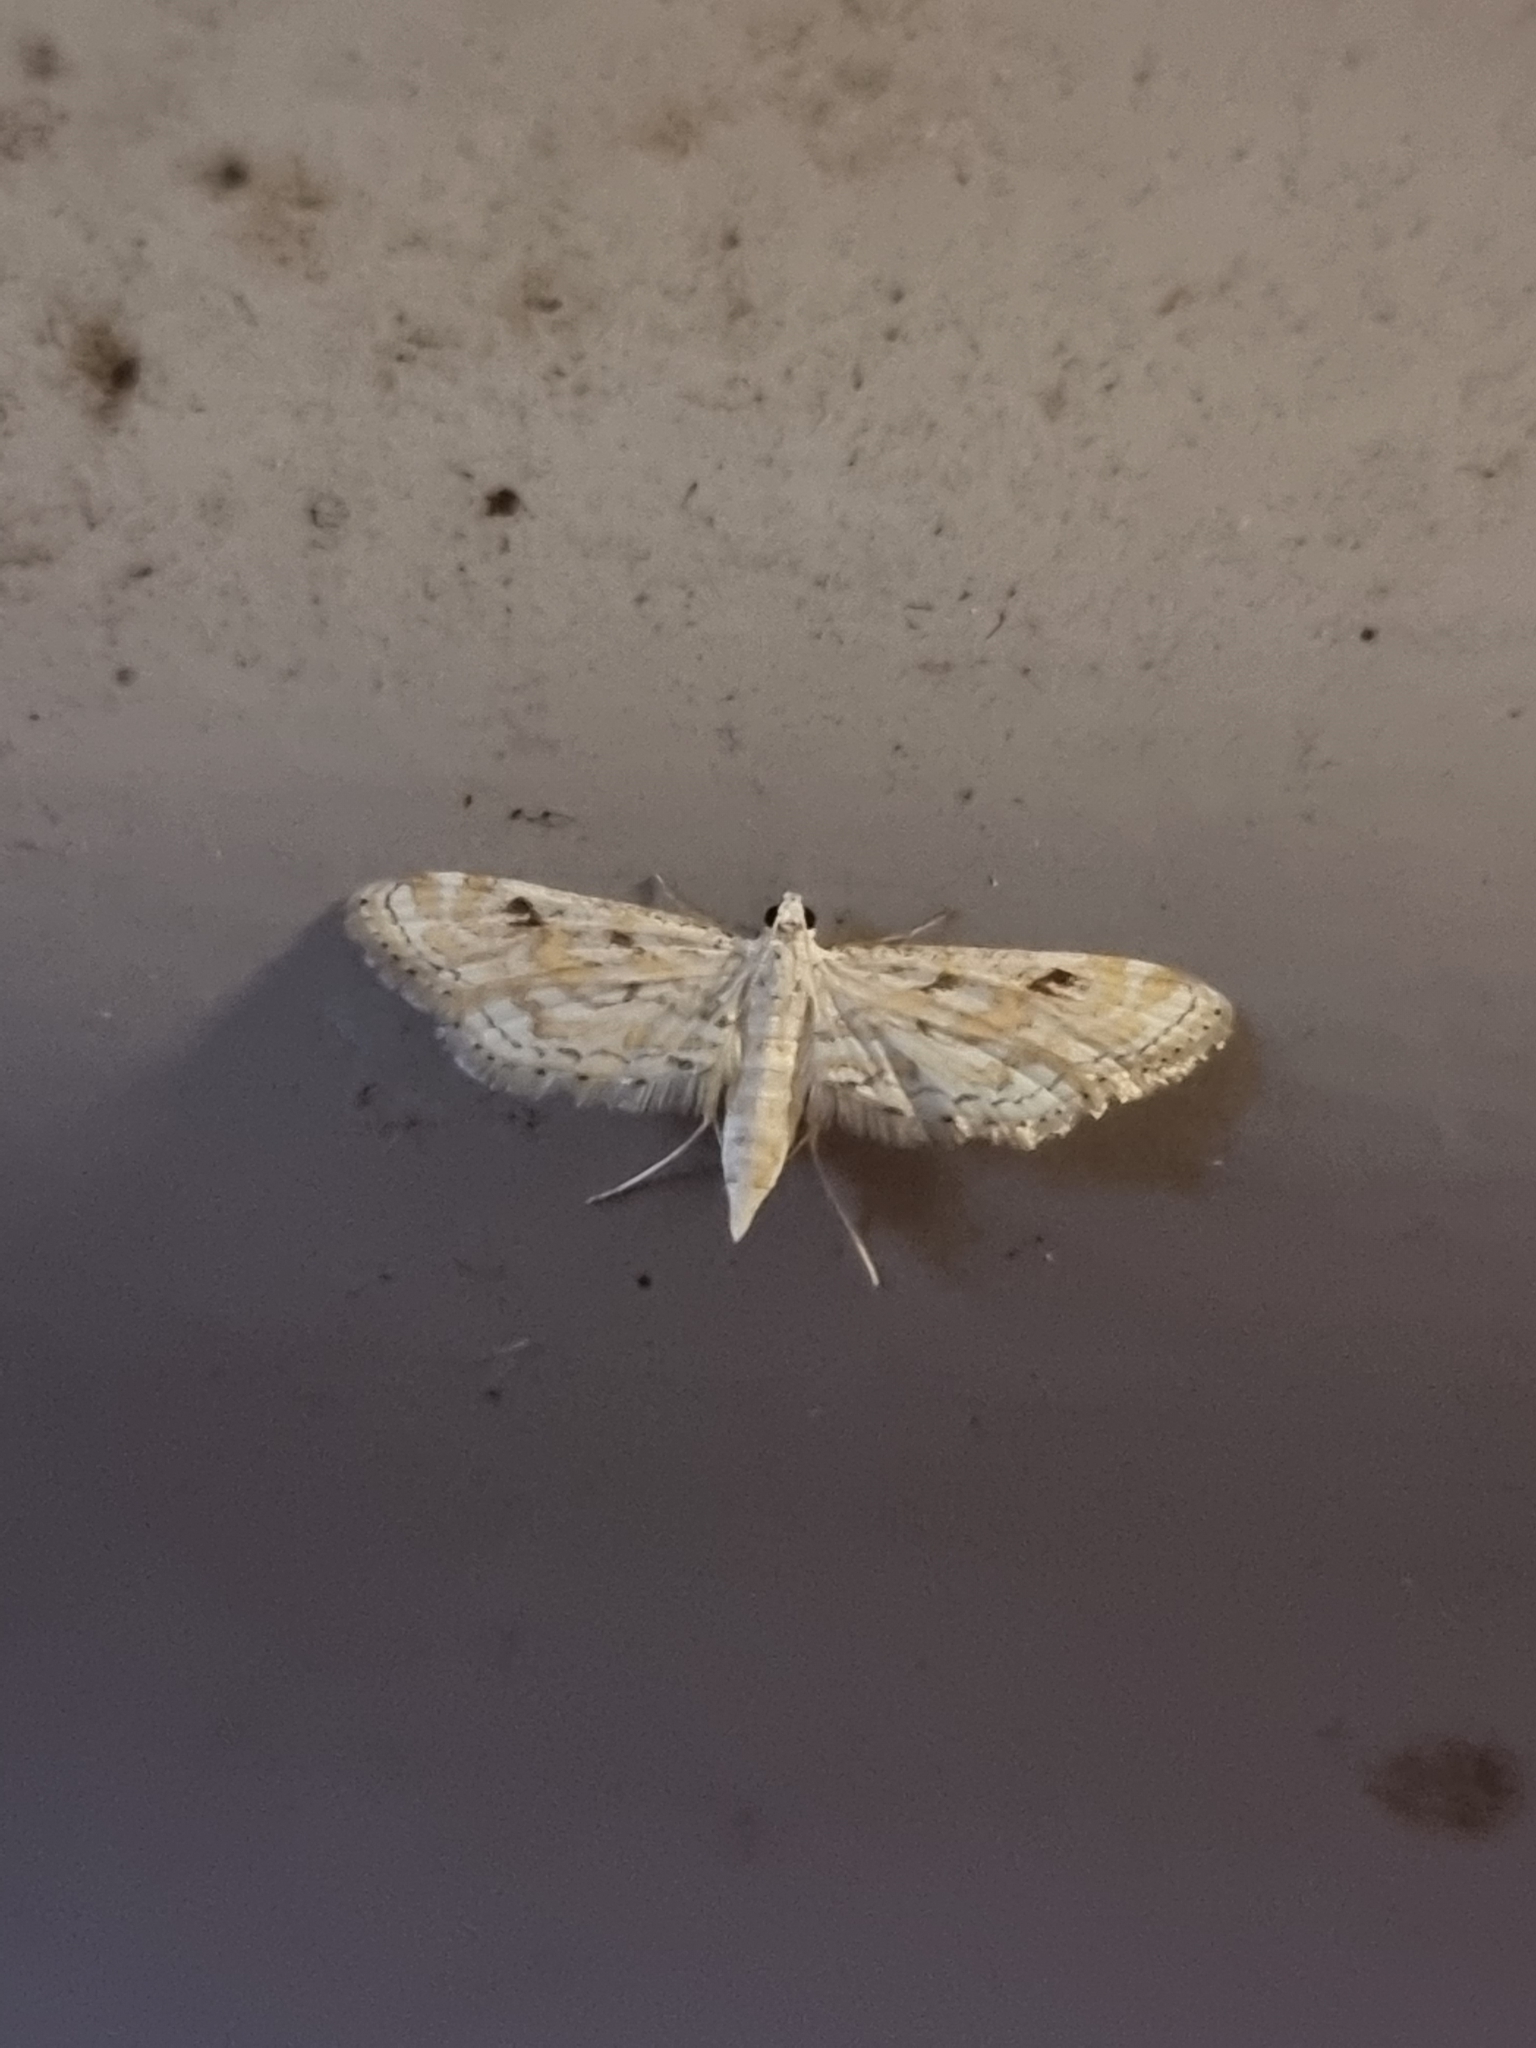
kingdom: Animalia
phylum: Arthropoda
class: Insecta
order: Lepidoptera
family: Crambidae
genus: Parapoynx
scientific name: Parapoynx diminutalis
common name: Hydrilla leafcutter
